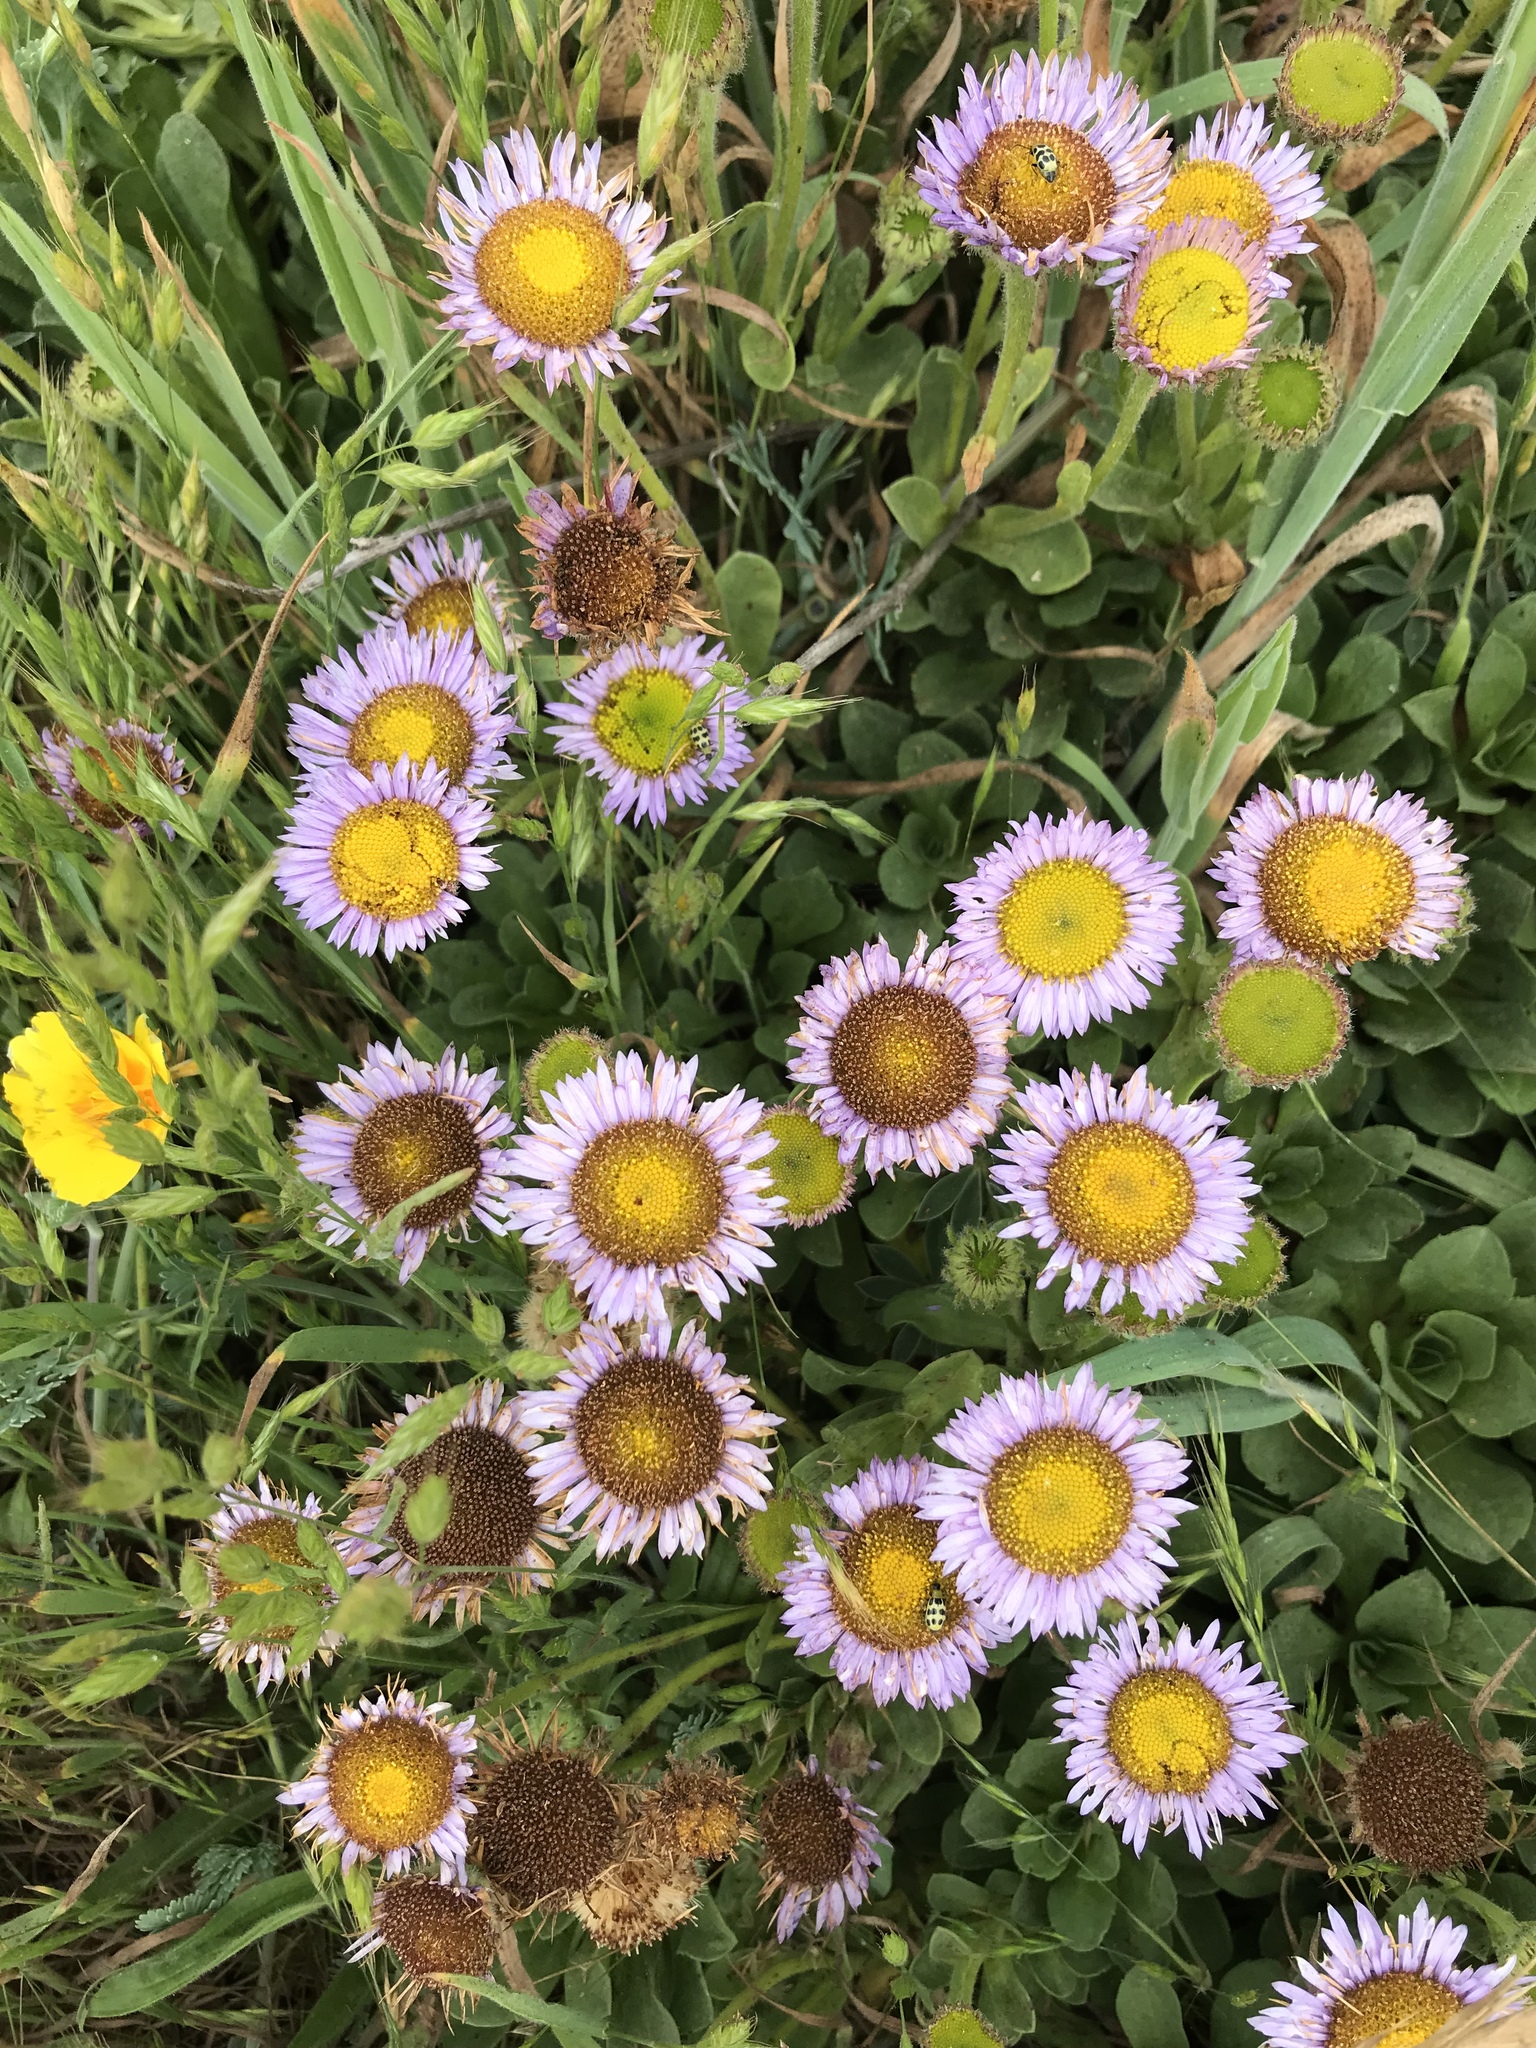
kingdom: Plantae
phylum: Tracheophyta
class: Magnoliopsida
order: Asterales
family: Asteraceae
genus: Erigeron
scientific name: Erigeron glaucus
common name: Seaside daisy
